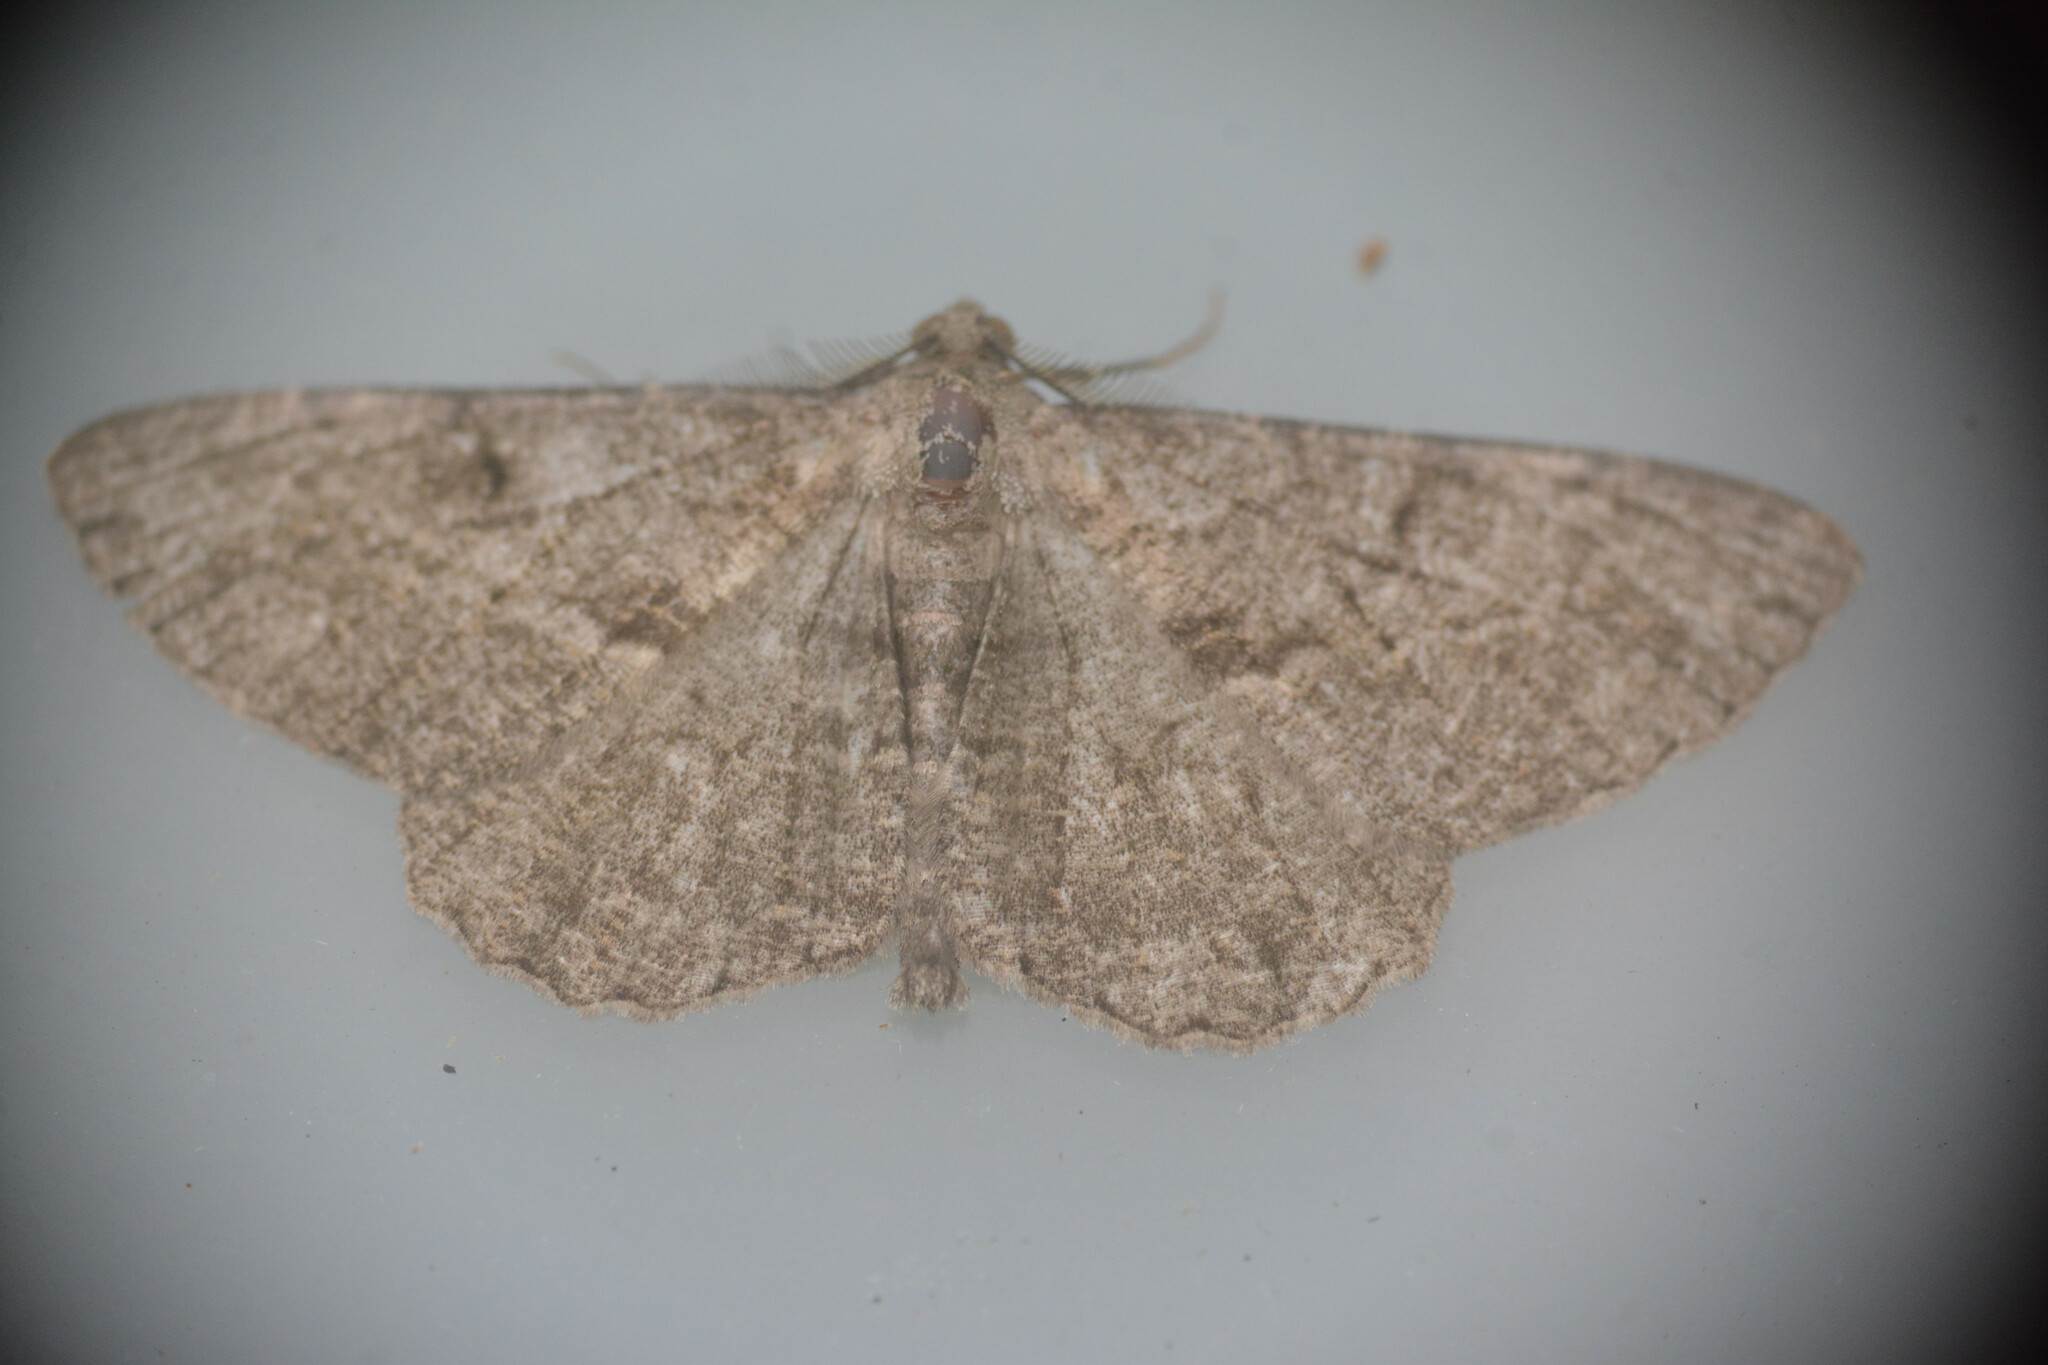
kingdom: Animalia
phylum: Arthropoda
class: Insecta
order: Lepidoptera
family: Geometridae
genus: Peribatodes
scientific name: Peribatodes rhomboidaria
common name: Willow beauty
